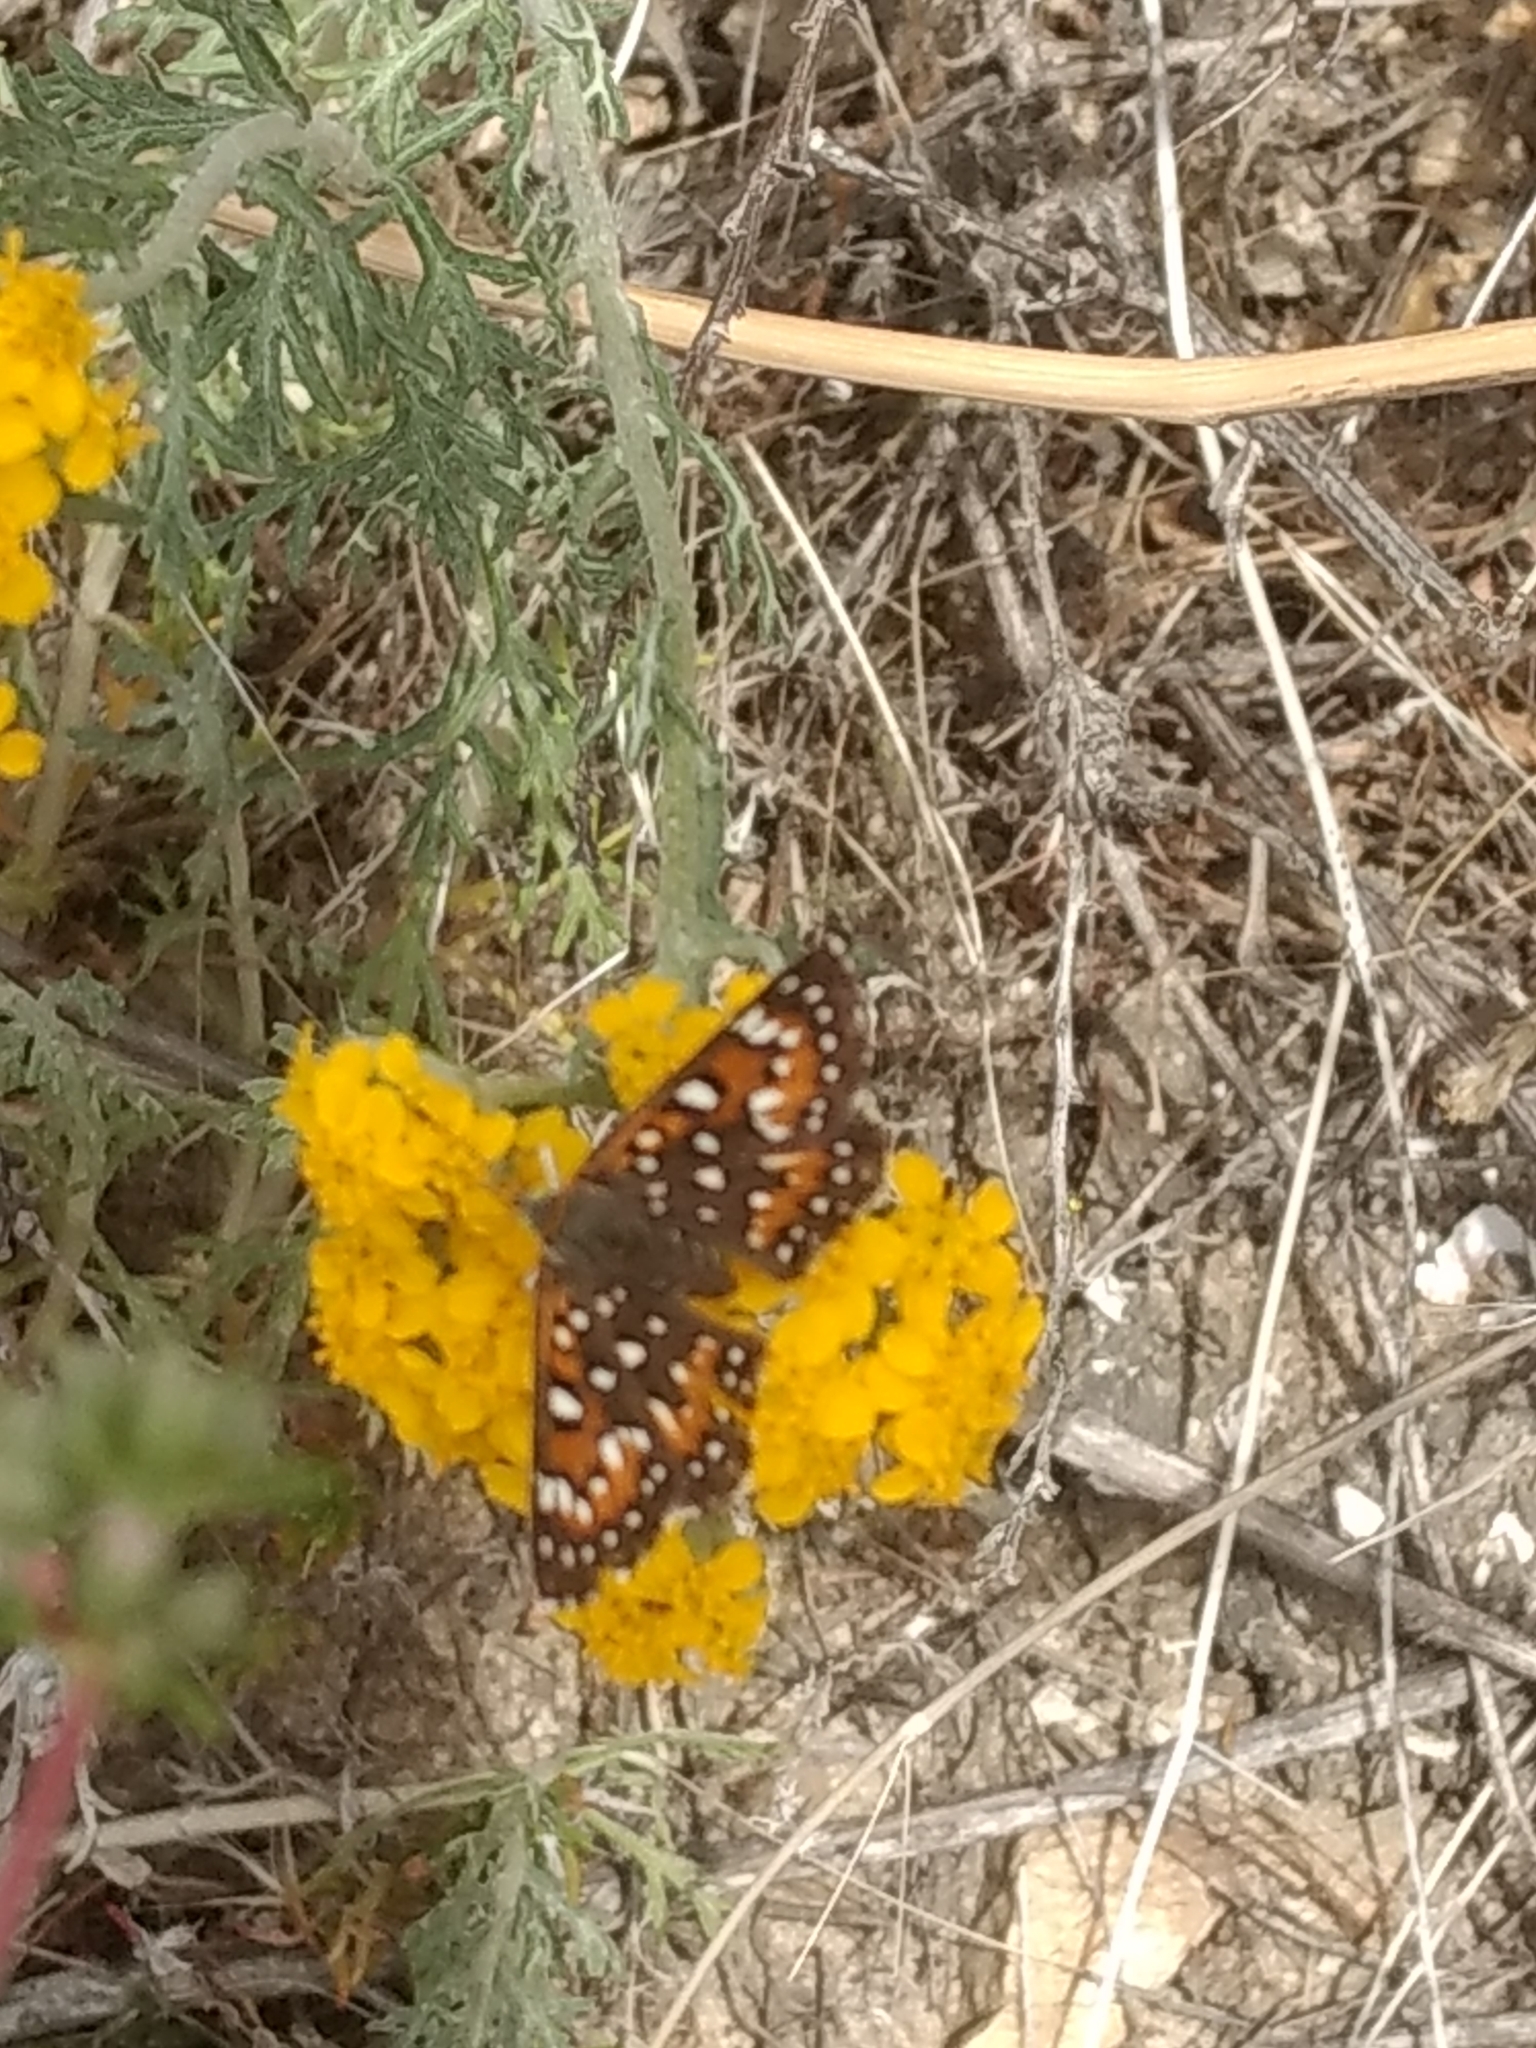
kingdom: Animalia
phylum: Arthropoda
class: Insecta
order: Lepidoptera
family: Riodinidae
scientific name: Riodinidae
